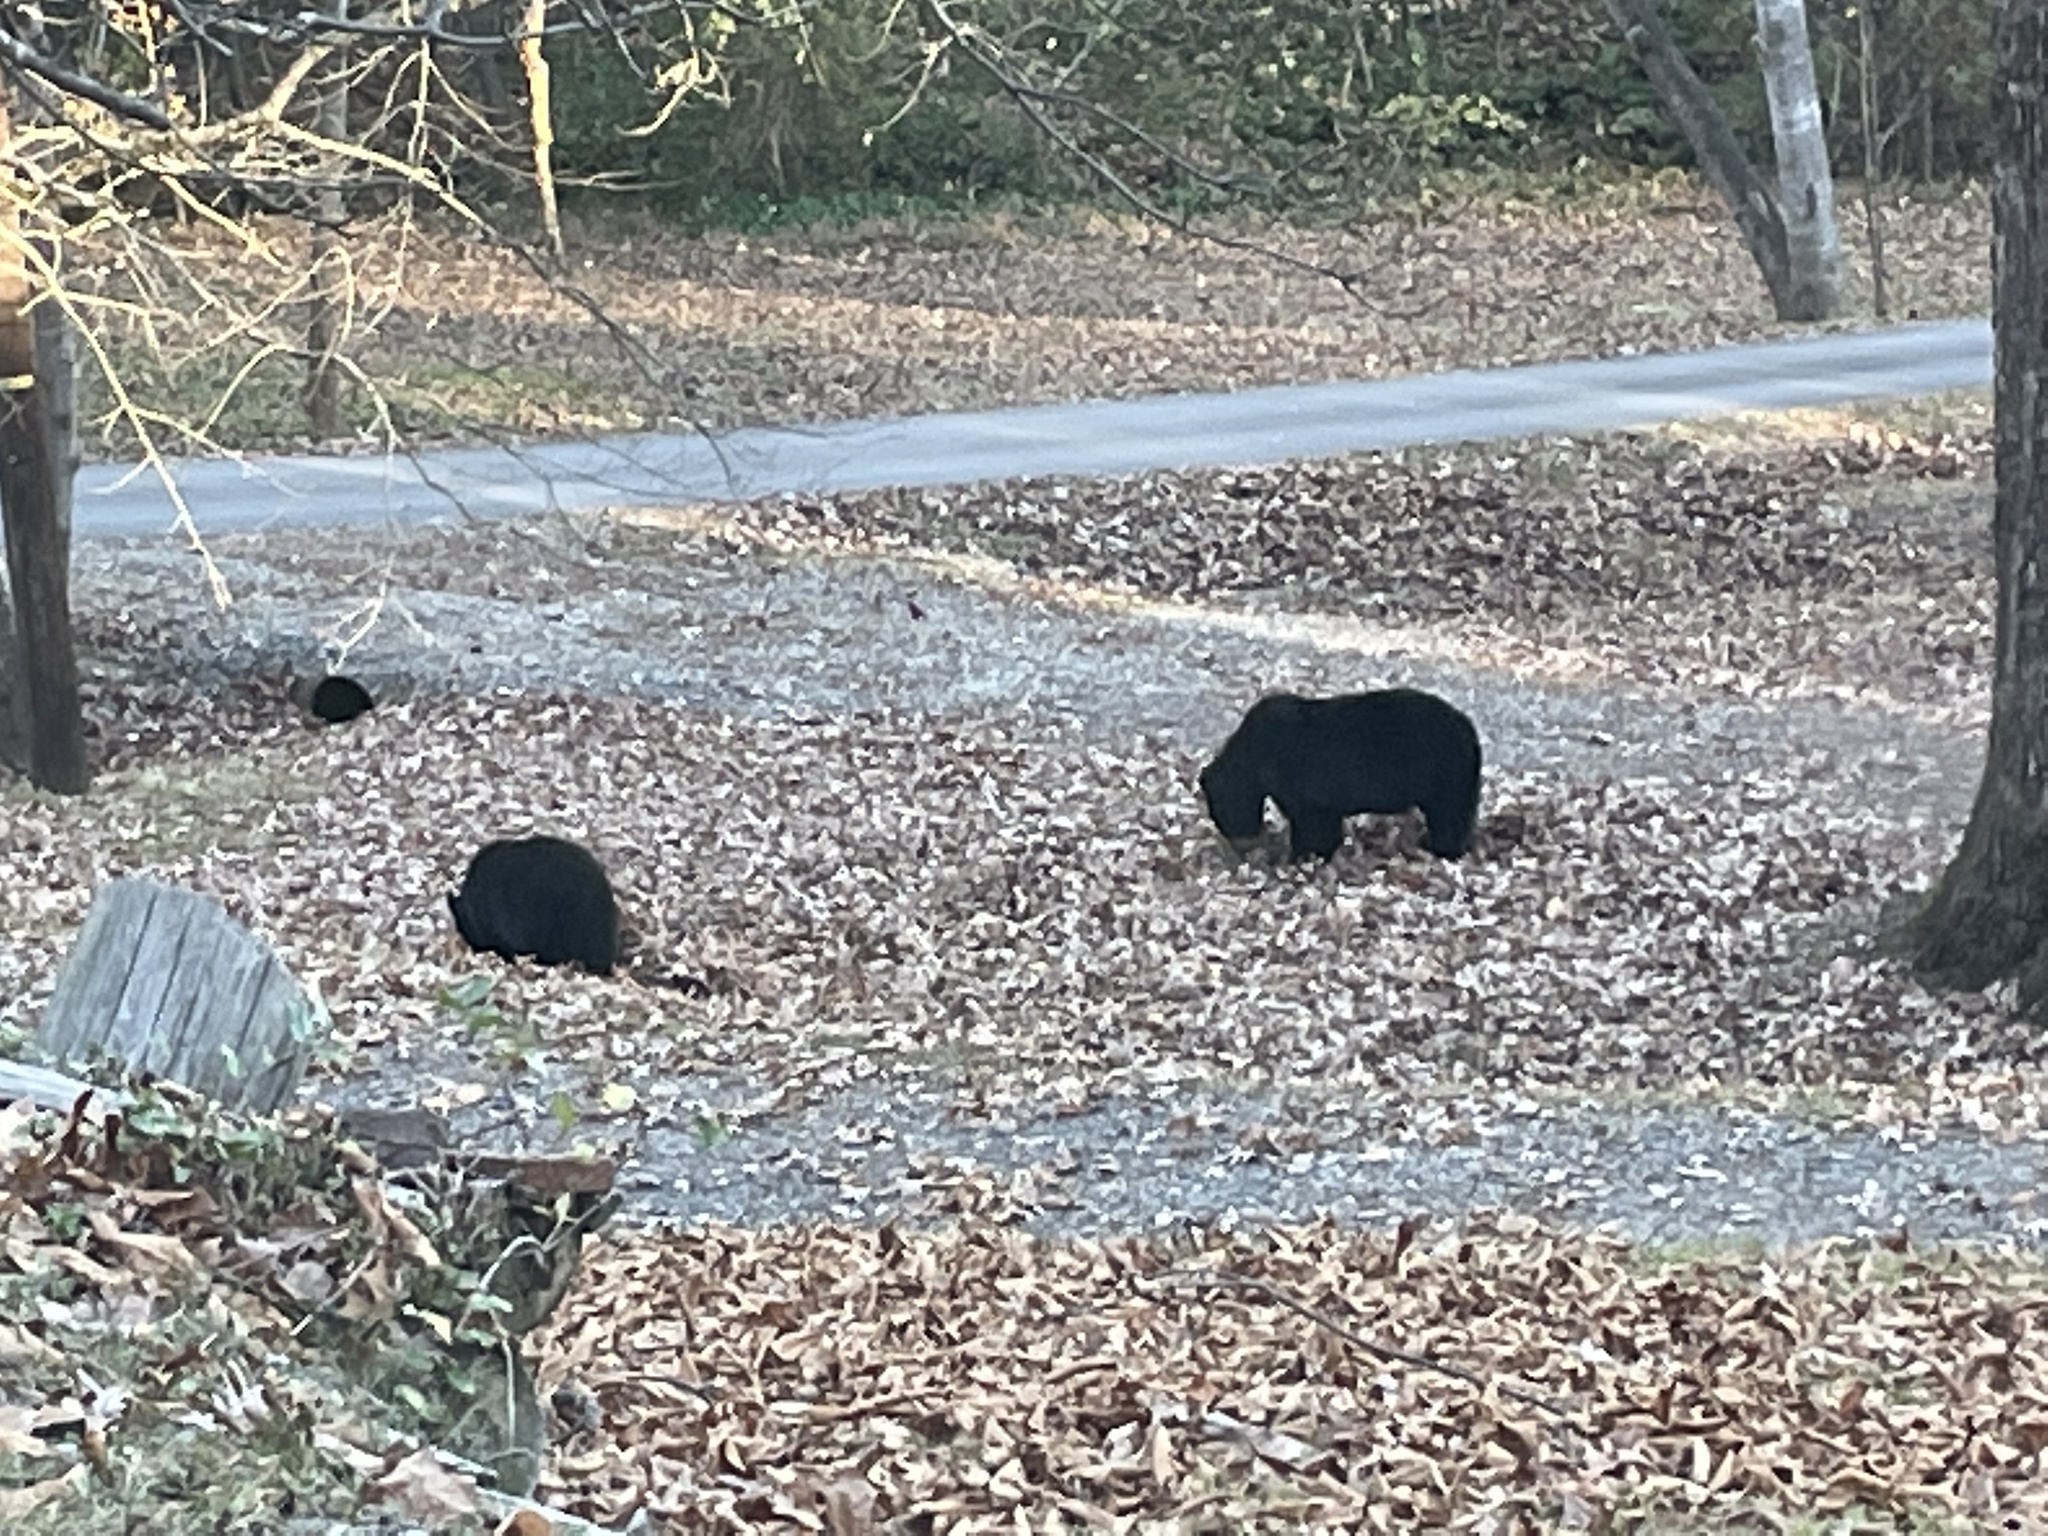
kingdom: Animalia
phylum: Chordata
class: Mammalia
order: Carnivora
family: Ursidae
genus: Ursus
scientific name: Ursus americanus
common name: American black bear
